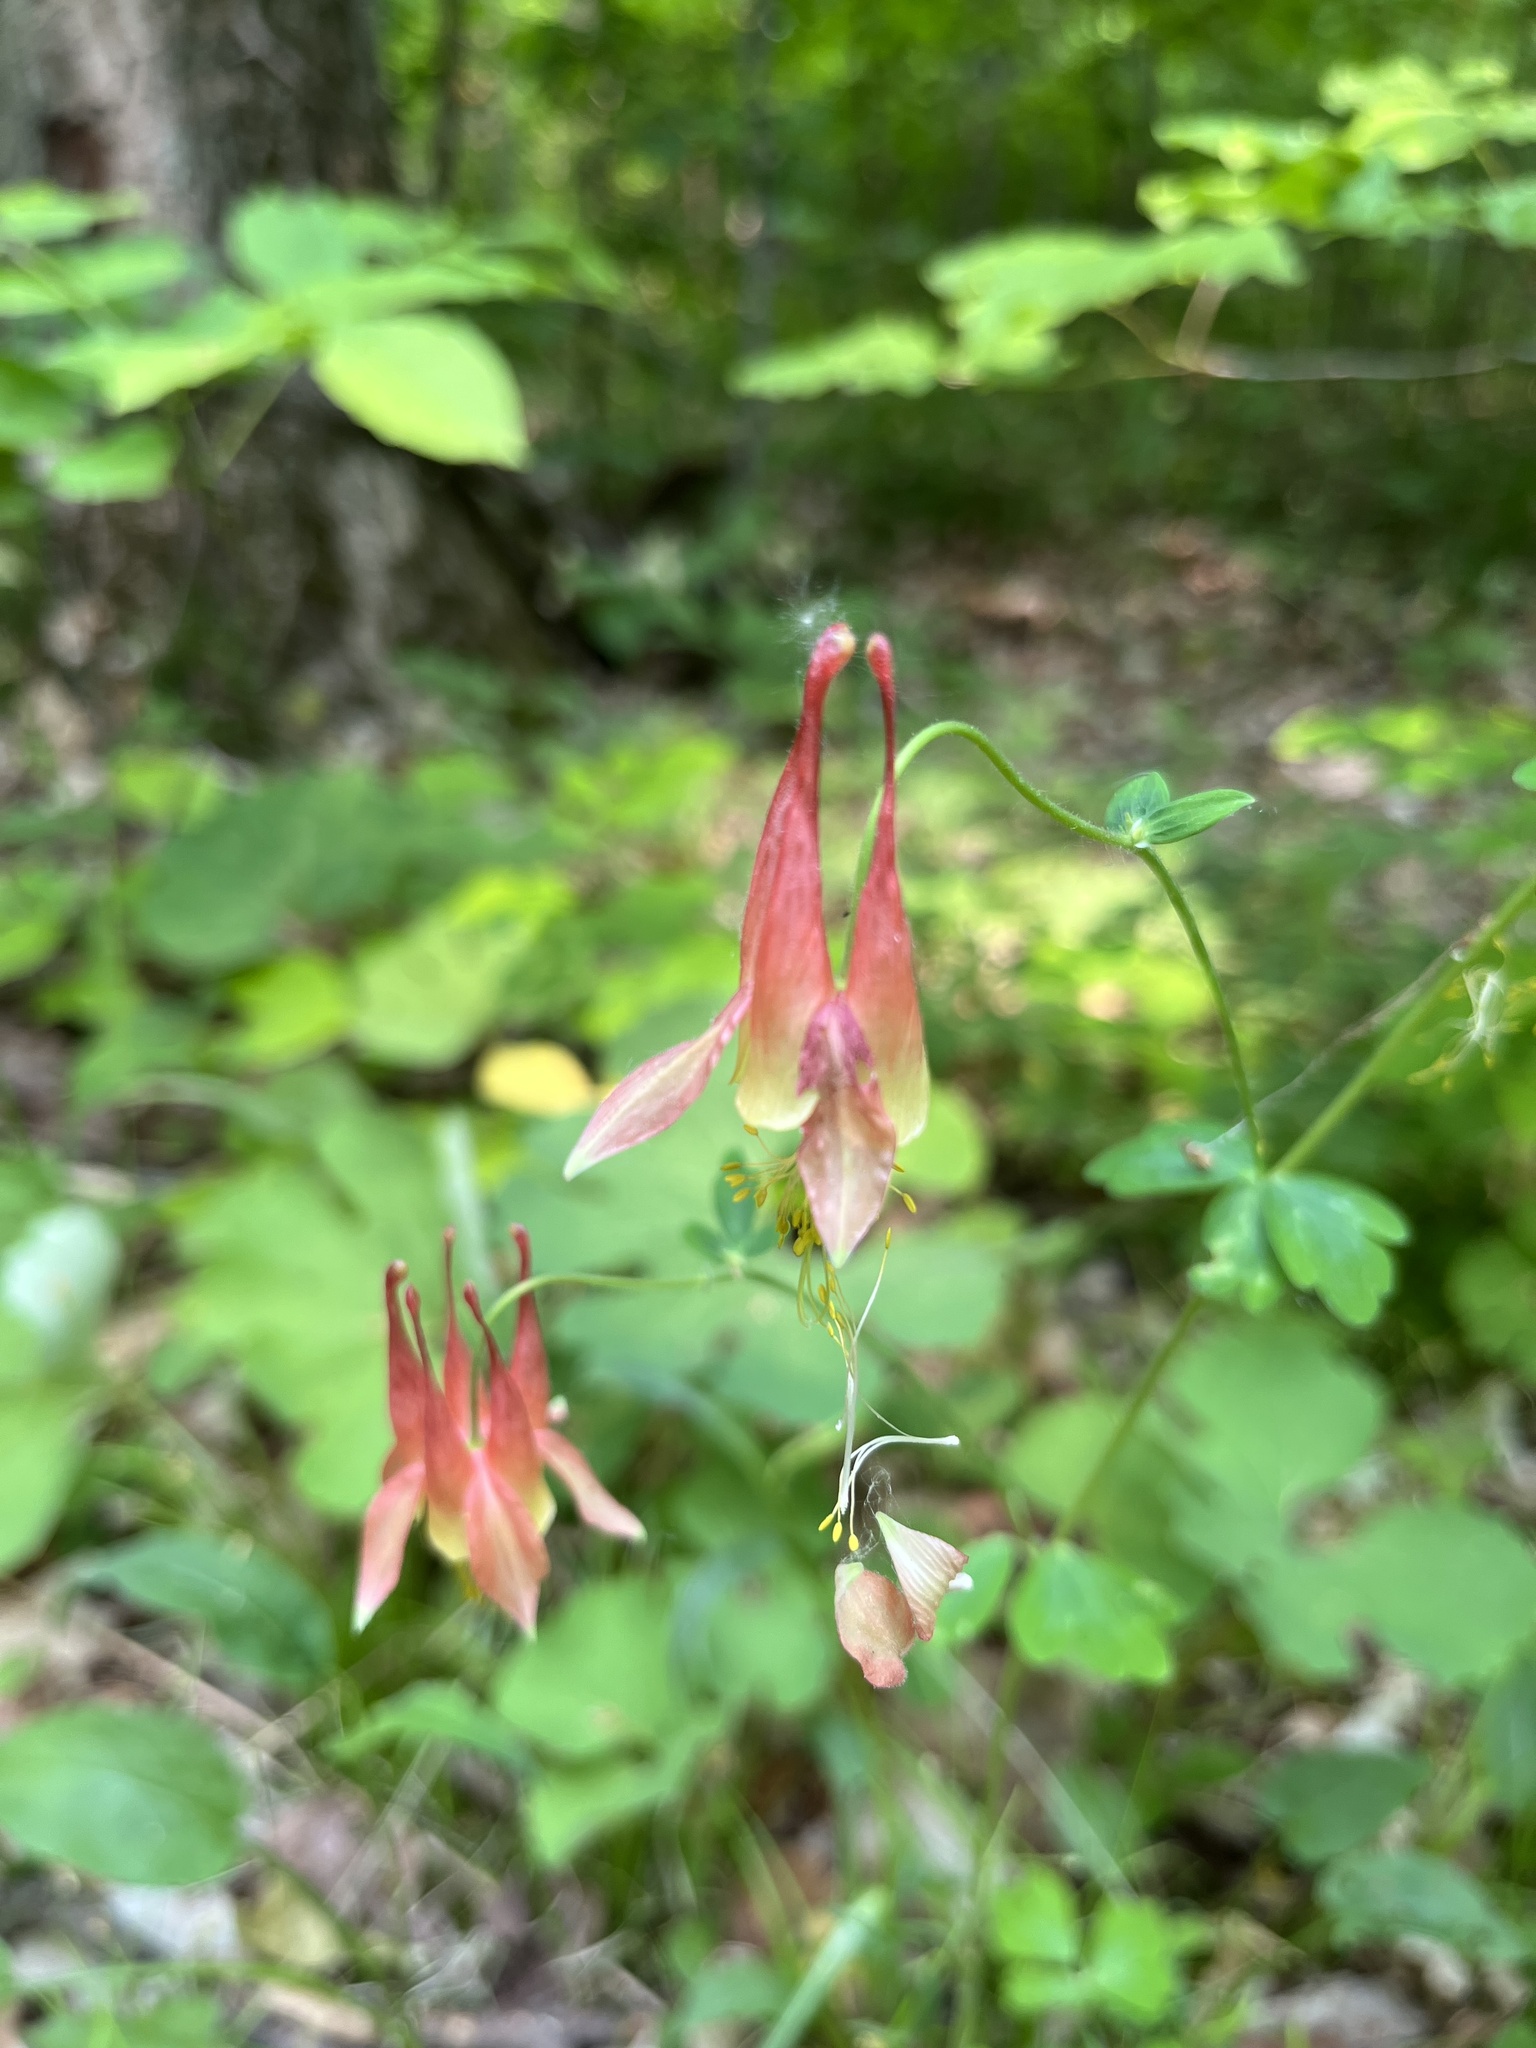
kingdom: Plantae
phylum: Tracheophyta
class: Magnoliopsida
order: Ranunculales
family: Ranunculaceae
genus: Aquilegia
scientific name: Aquilegia canadensis
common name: American columbine
